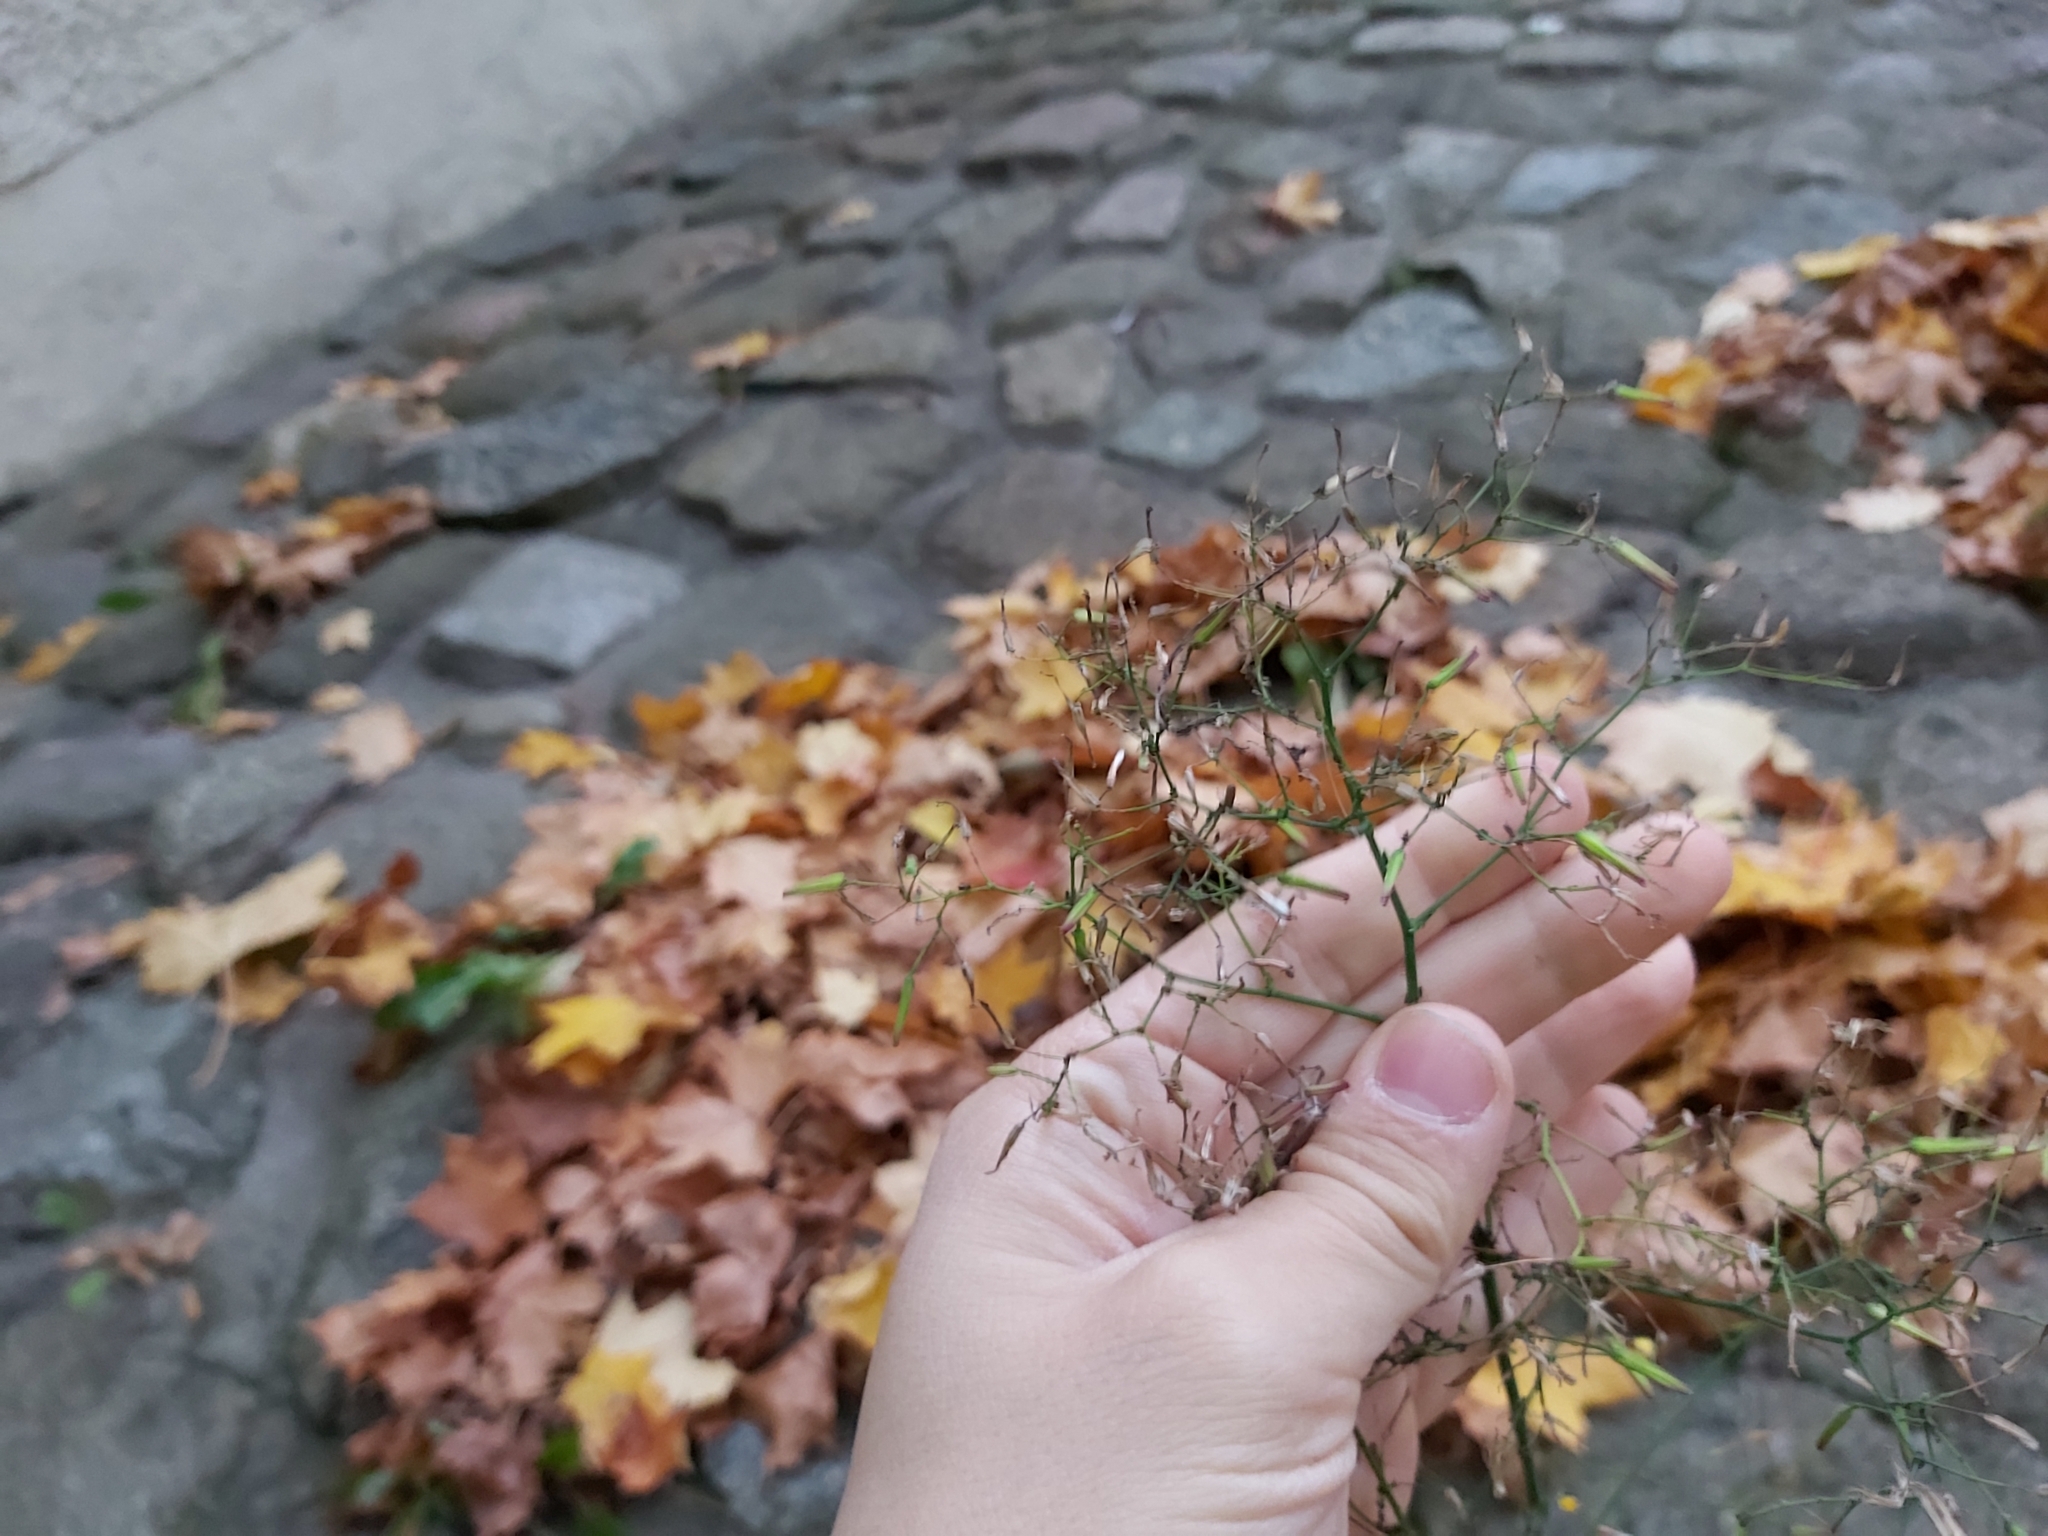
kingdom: Plantae
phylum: Tracheophyta
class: Magnoliopsida
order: Asterales
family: Asteraceae
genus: Mycelis
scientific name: Mycelis muralis
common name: Wall lettuce
